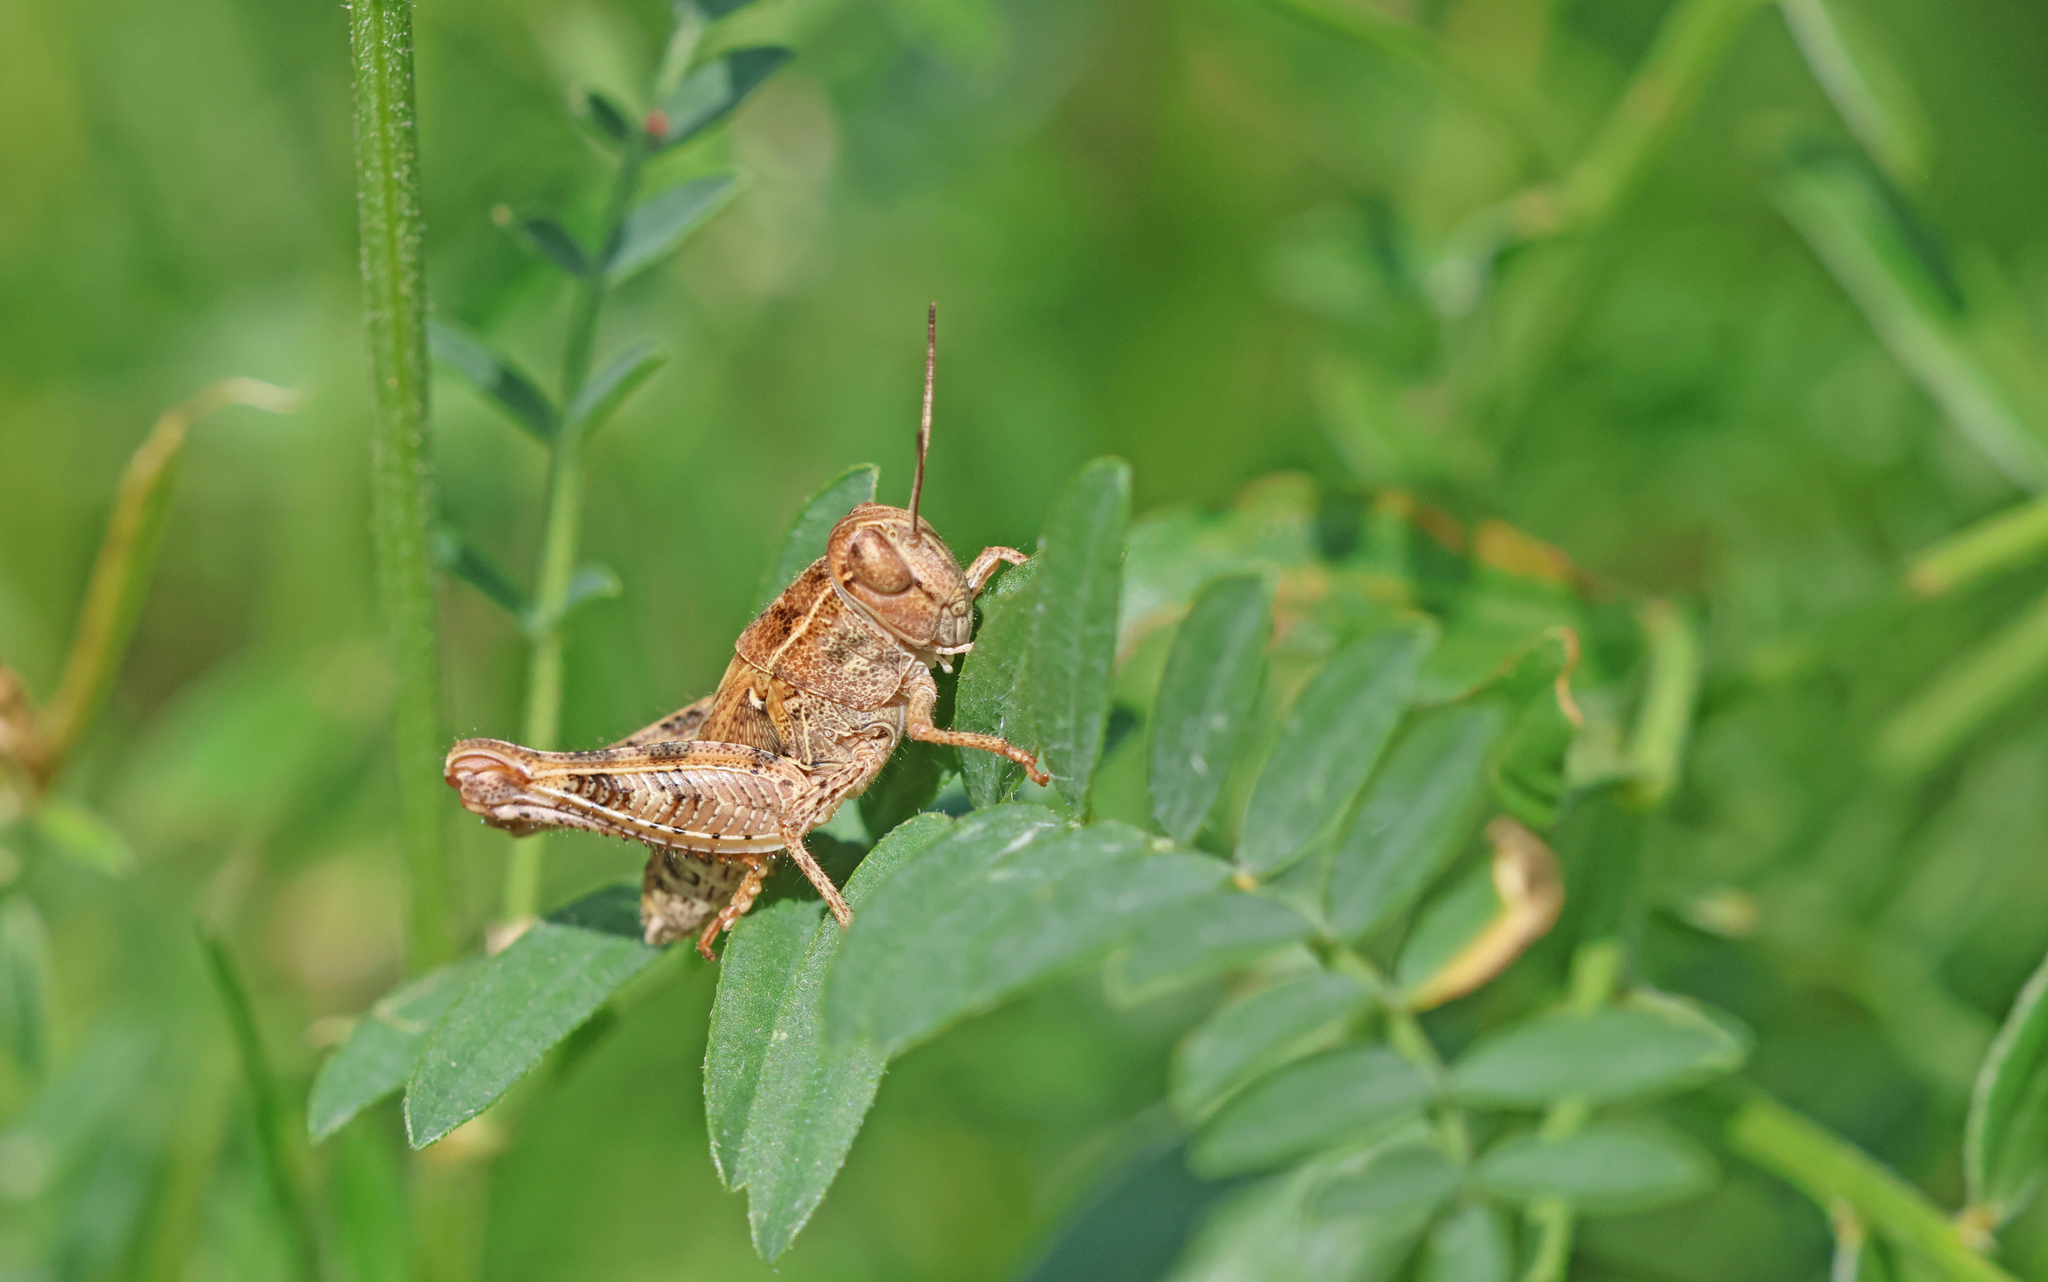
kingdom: Animalia
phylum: Arthropoda
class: Insecta
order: Orthoptera
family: Acrididae
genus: Calliptamus
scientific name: Calliptamus italicus
